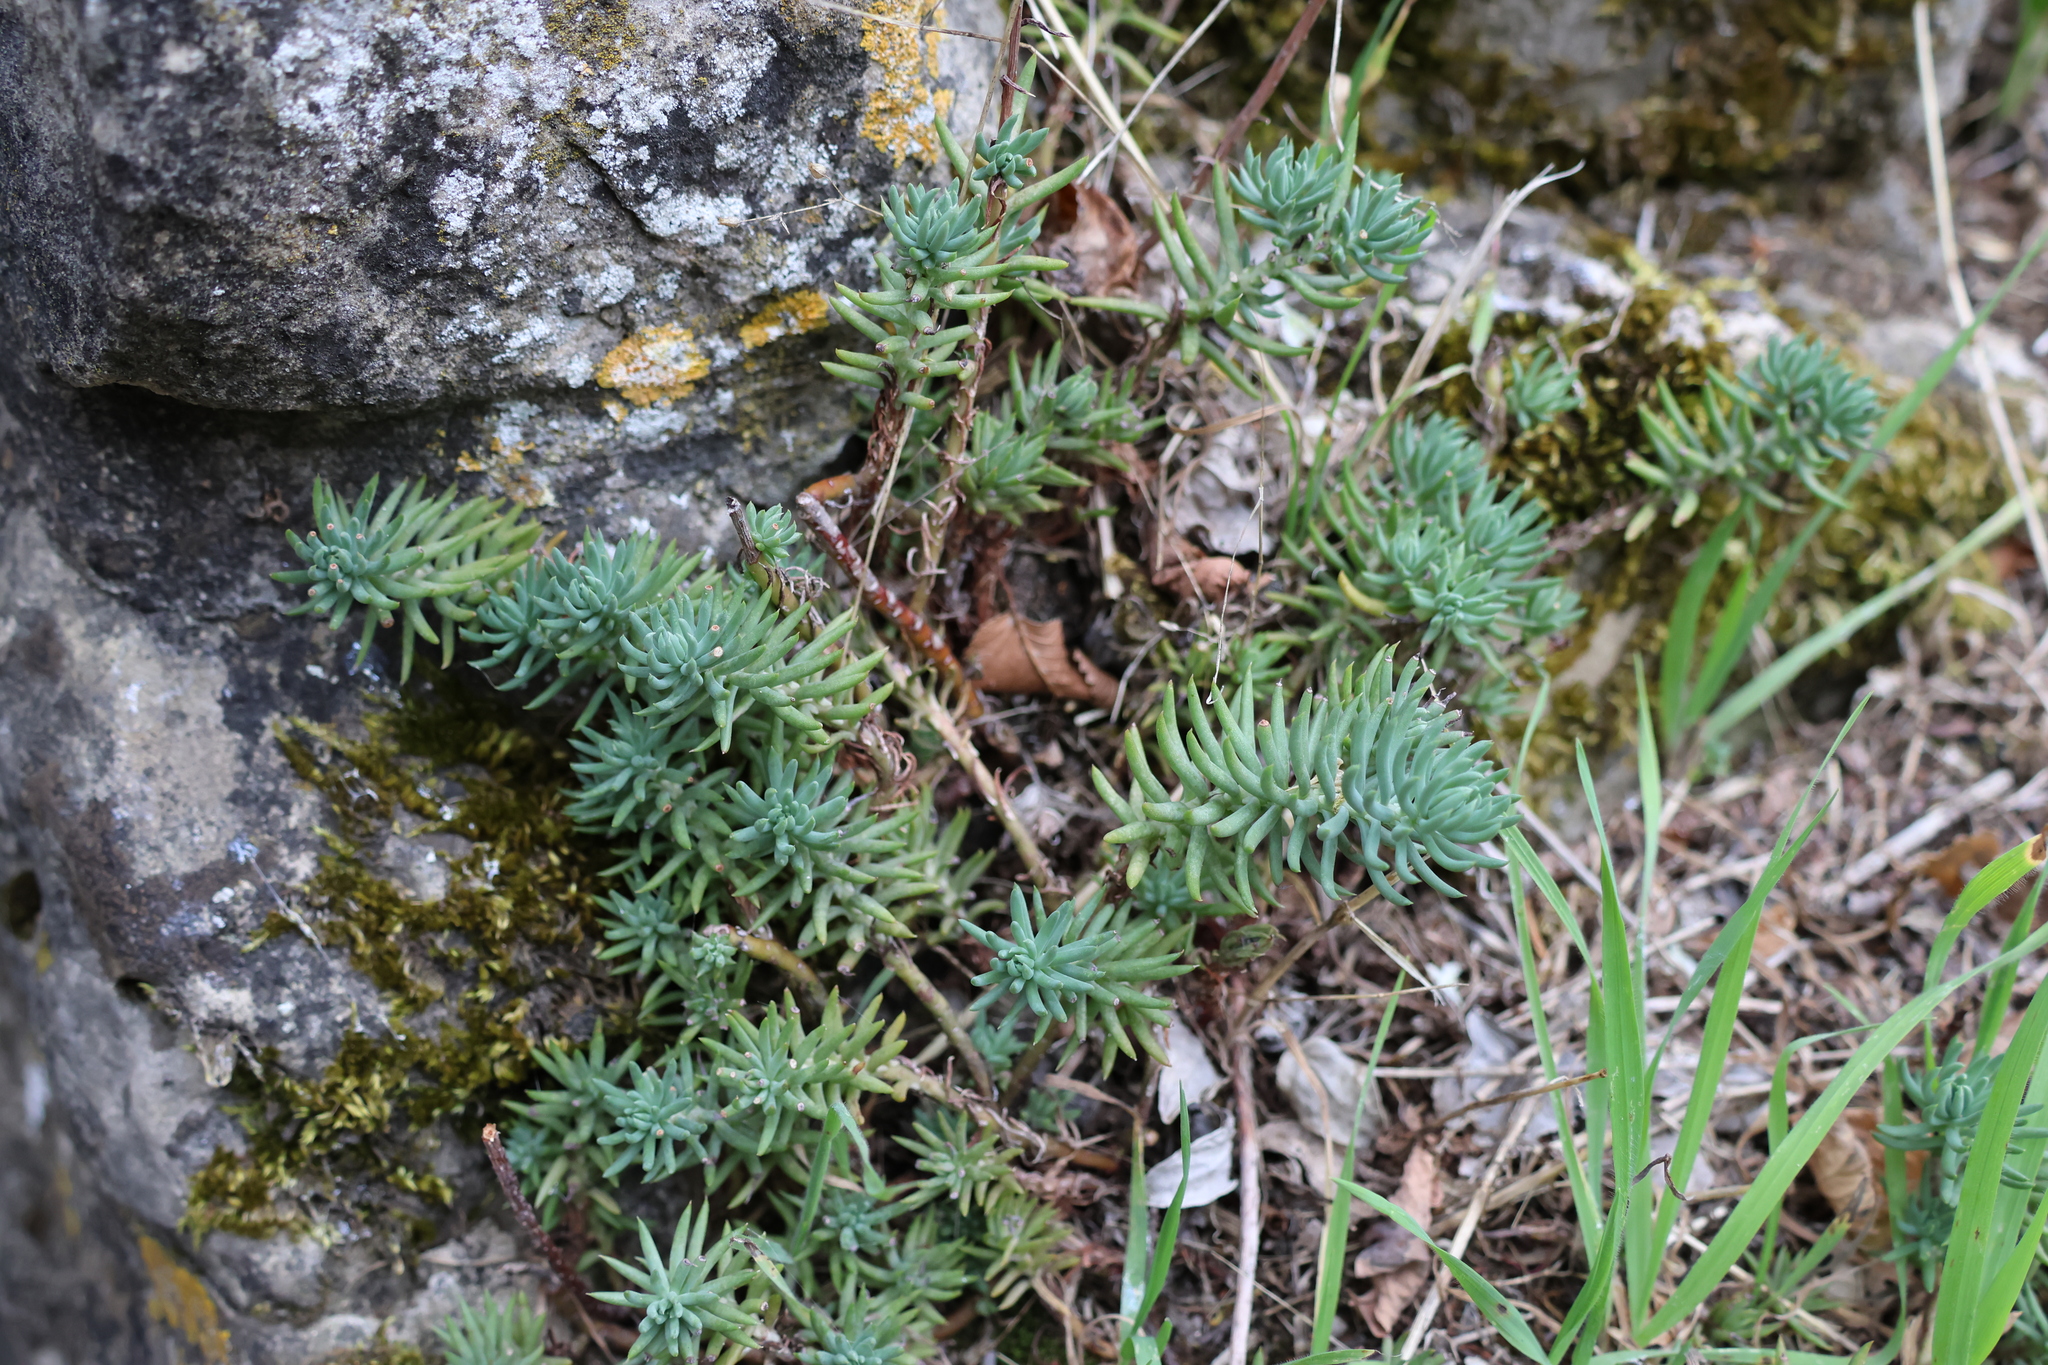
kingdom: Plantae
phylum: Tracheophyta
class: Magnoliopsida
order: Saxifragales
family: Crassulaceae
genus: Petrosedum
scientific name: Petrosedum rupestre
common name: Jenny's stonecrop
